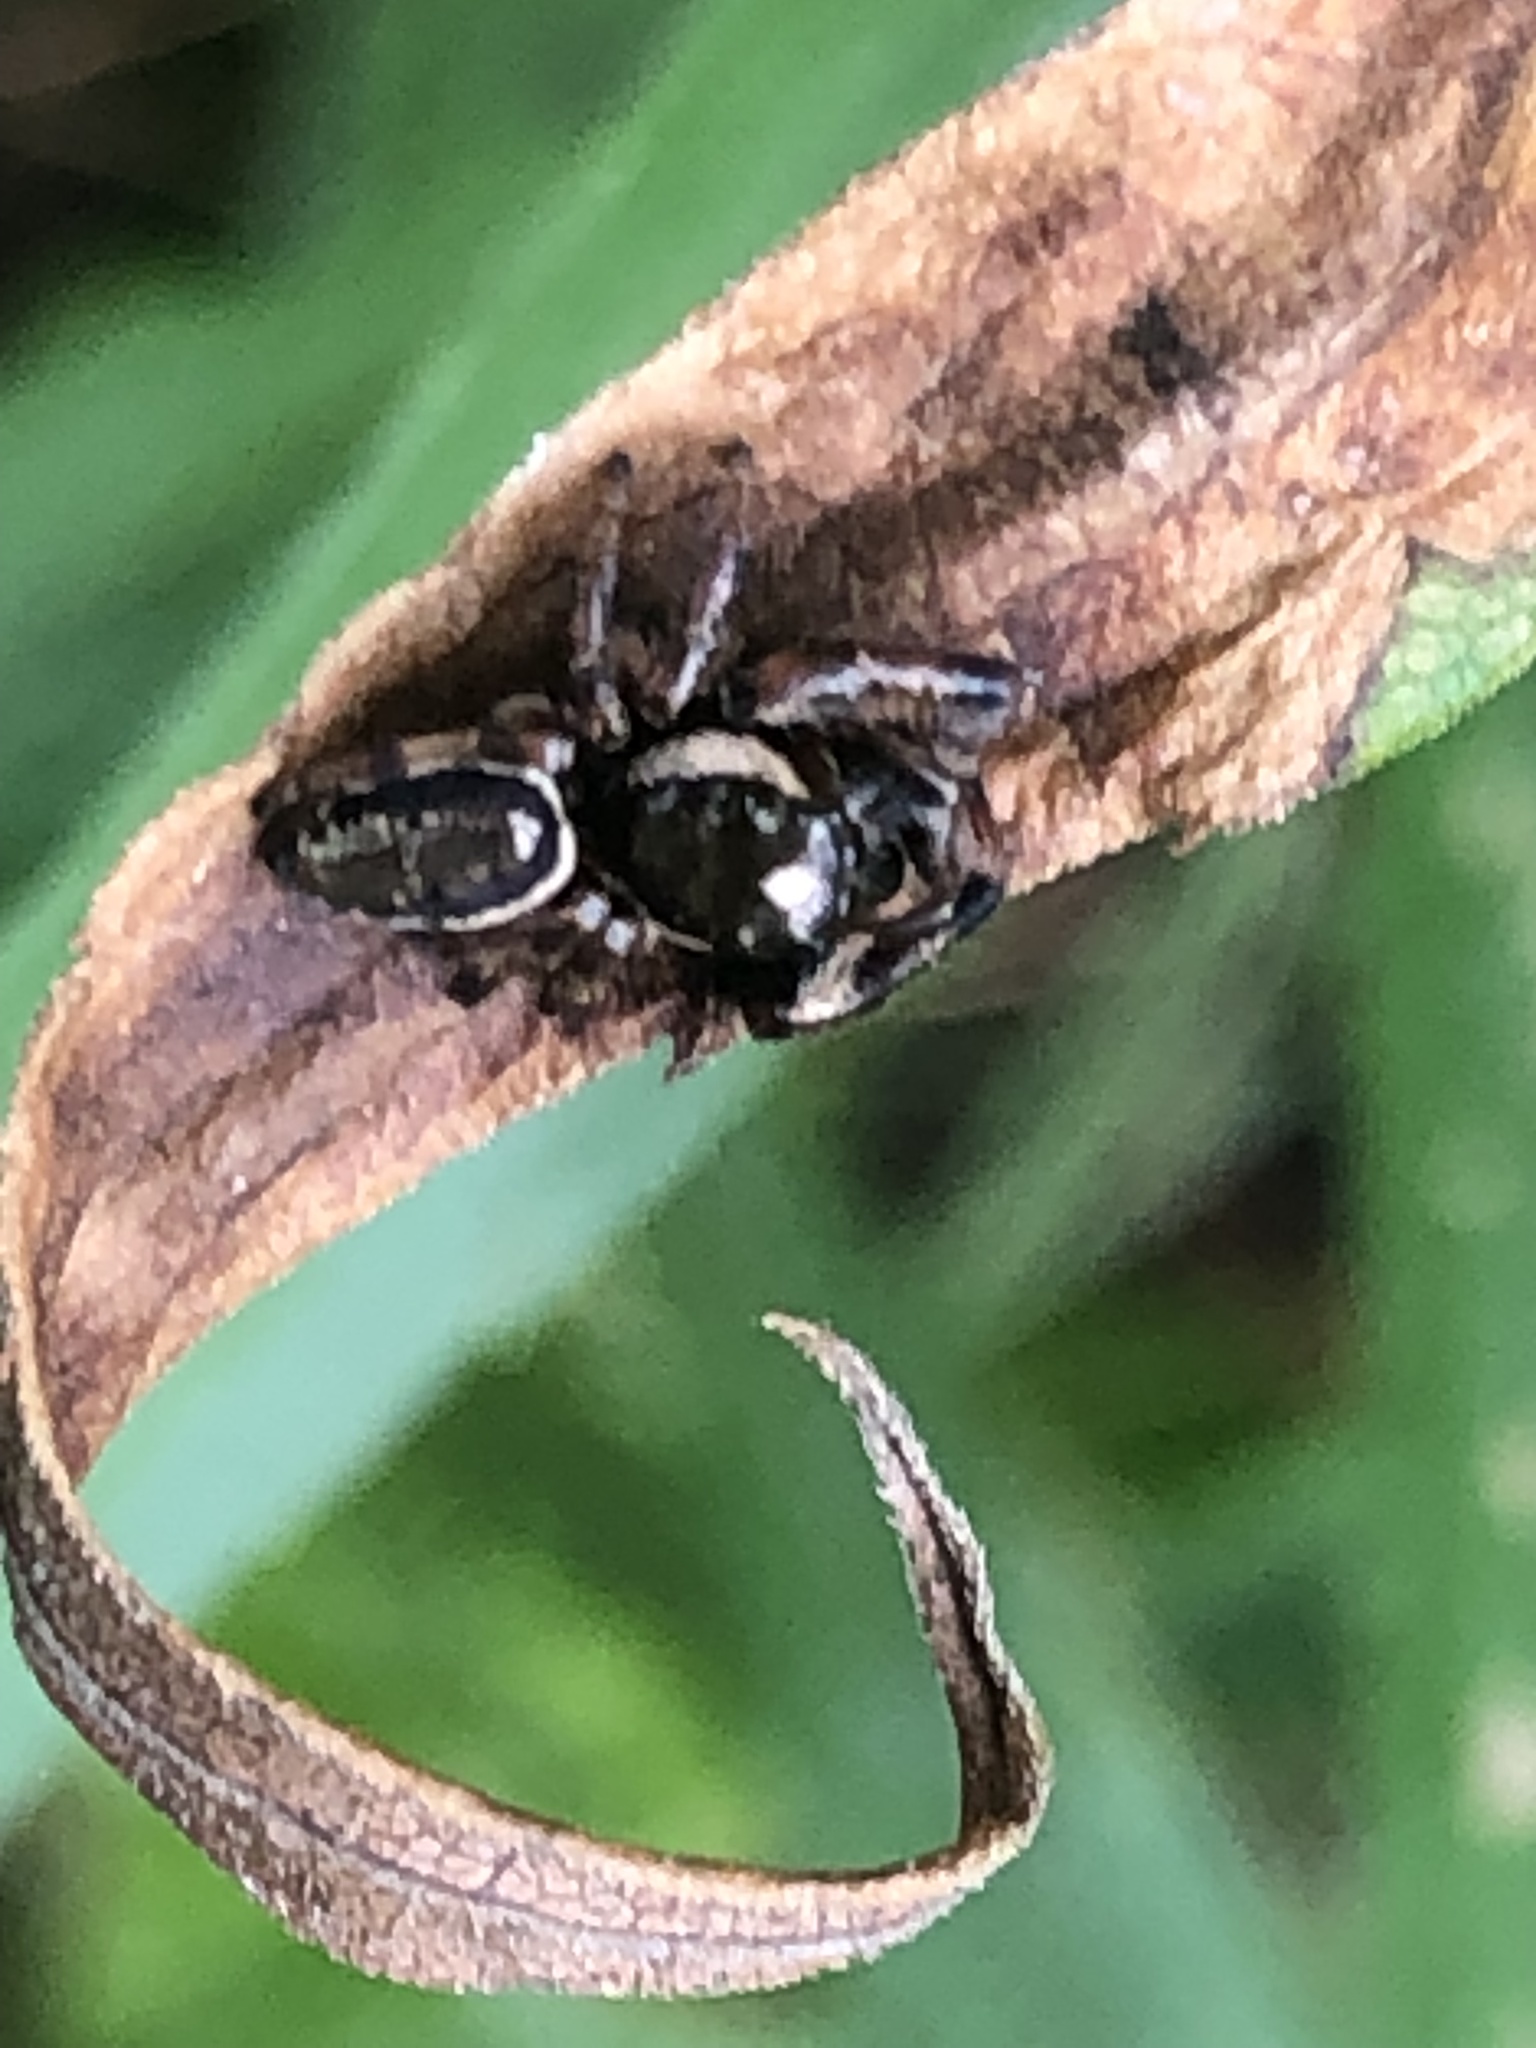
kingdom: Animalia
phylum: Arthropoda
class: Arachnida
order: Araneae
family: Salticidae
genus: Eris
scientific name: Eris militaris
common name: Bronze jumper
